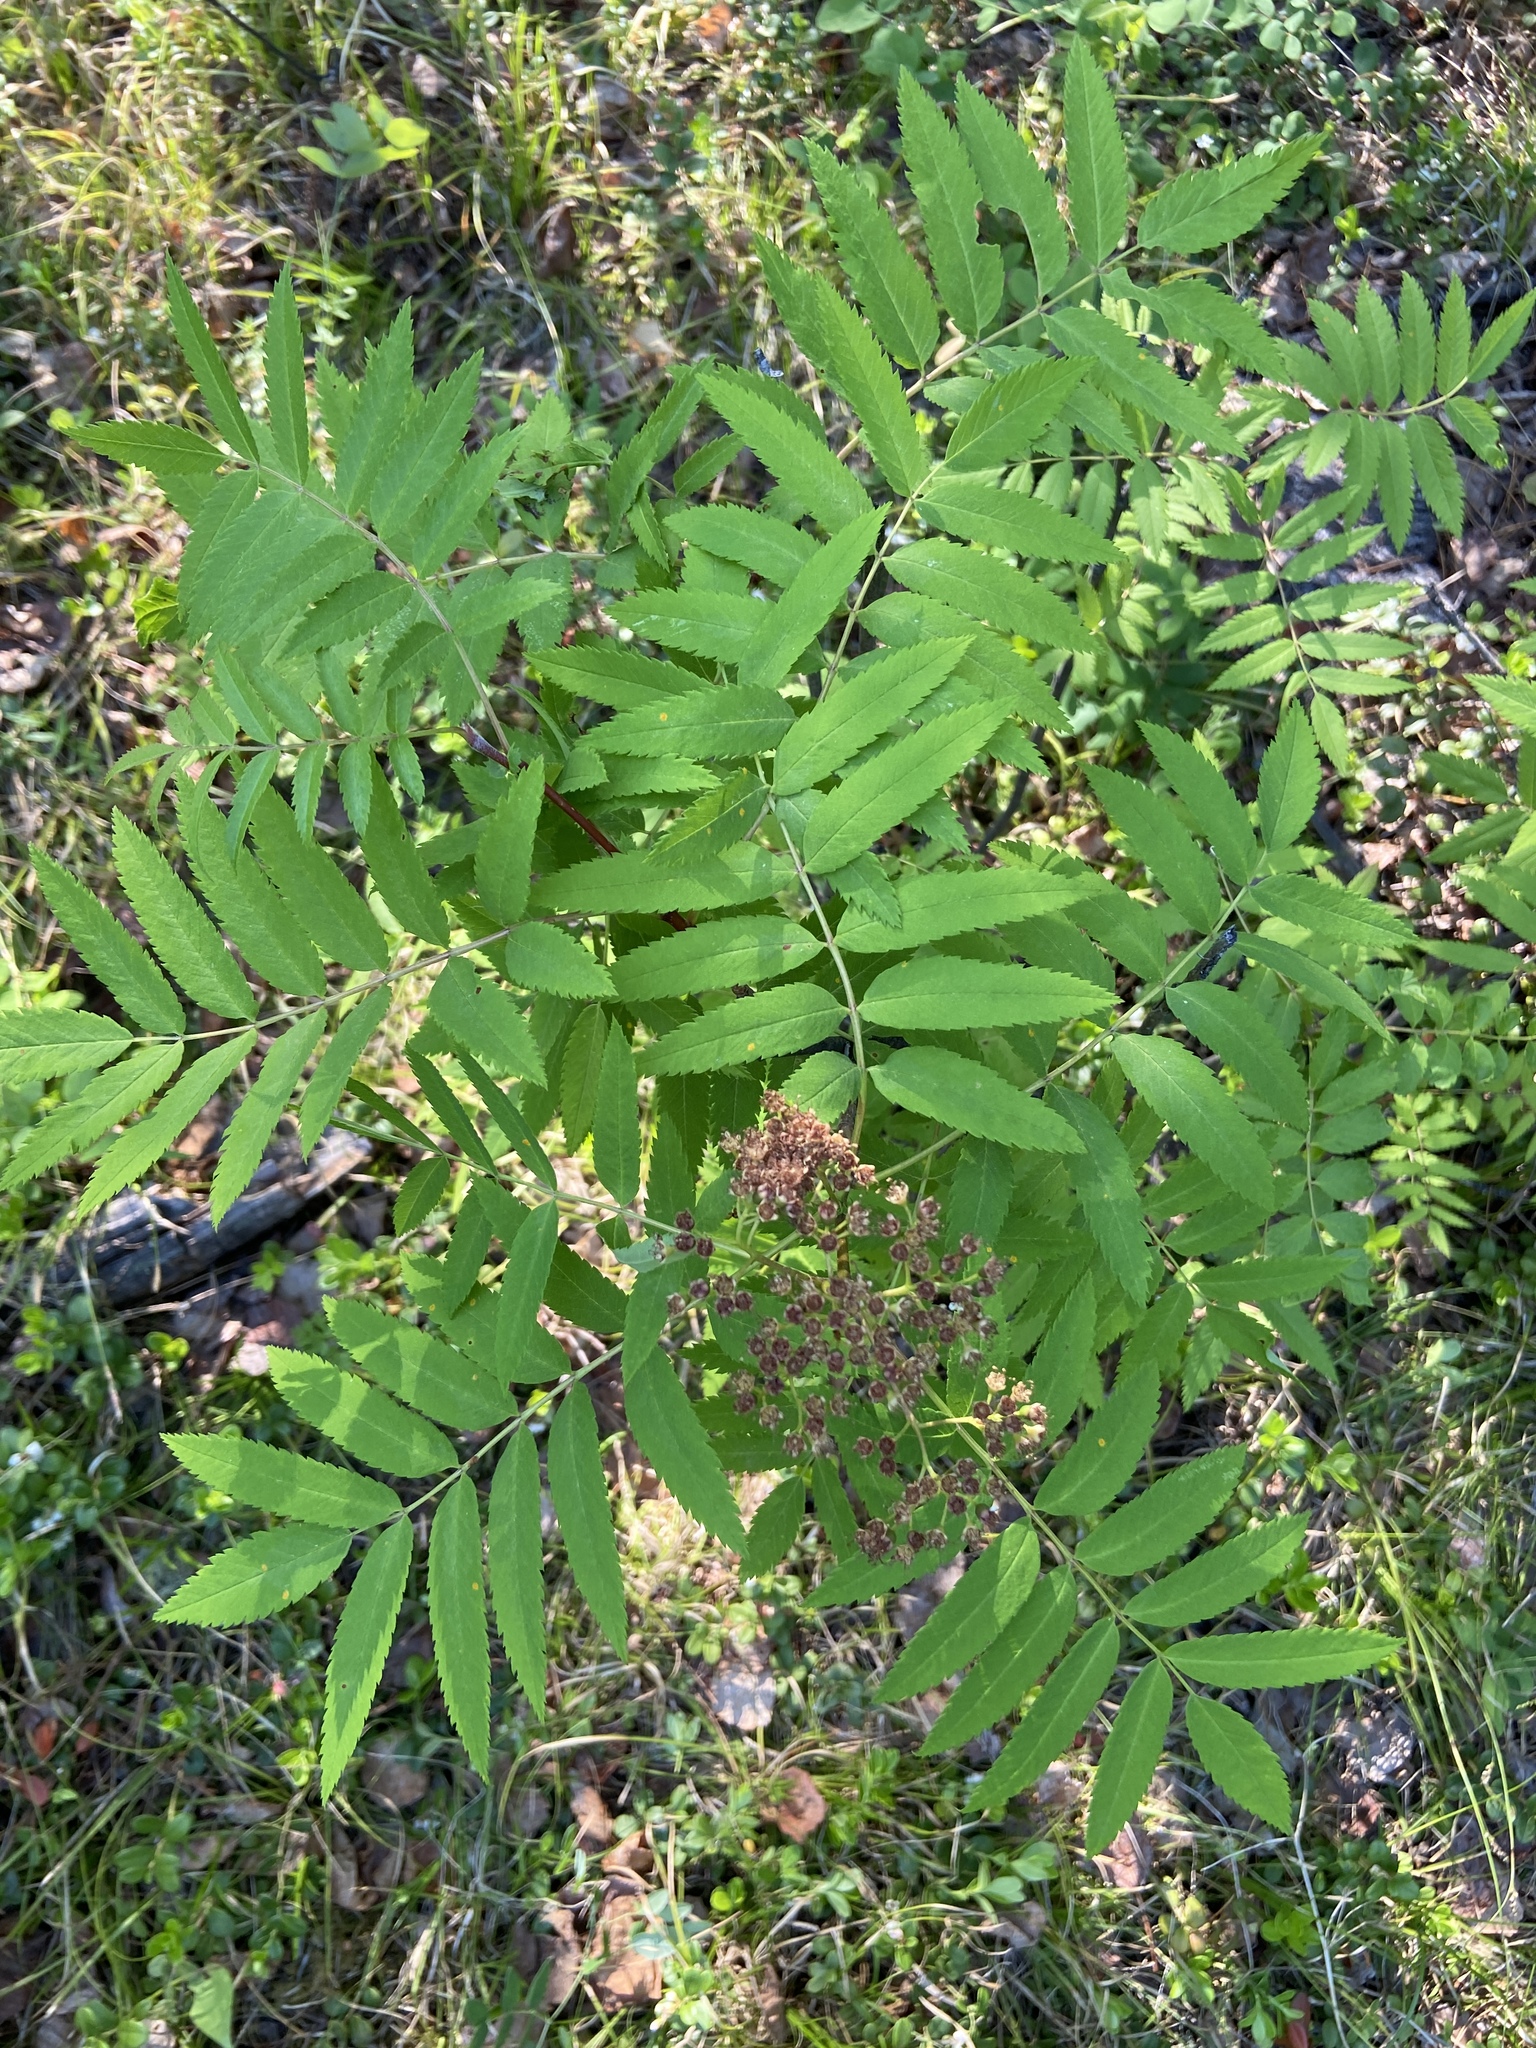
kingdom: Plantae
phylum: Tracheophyta
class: Magnoliopsida
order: Rosales
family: Rosaceae
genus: Sorbus
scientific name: Sorbus aucuparia
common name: Rowan
